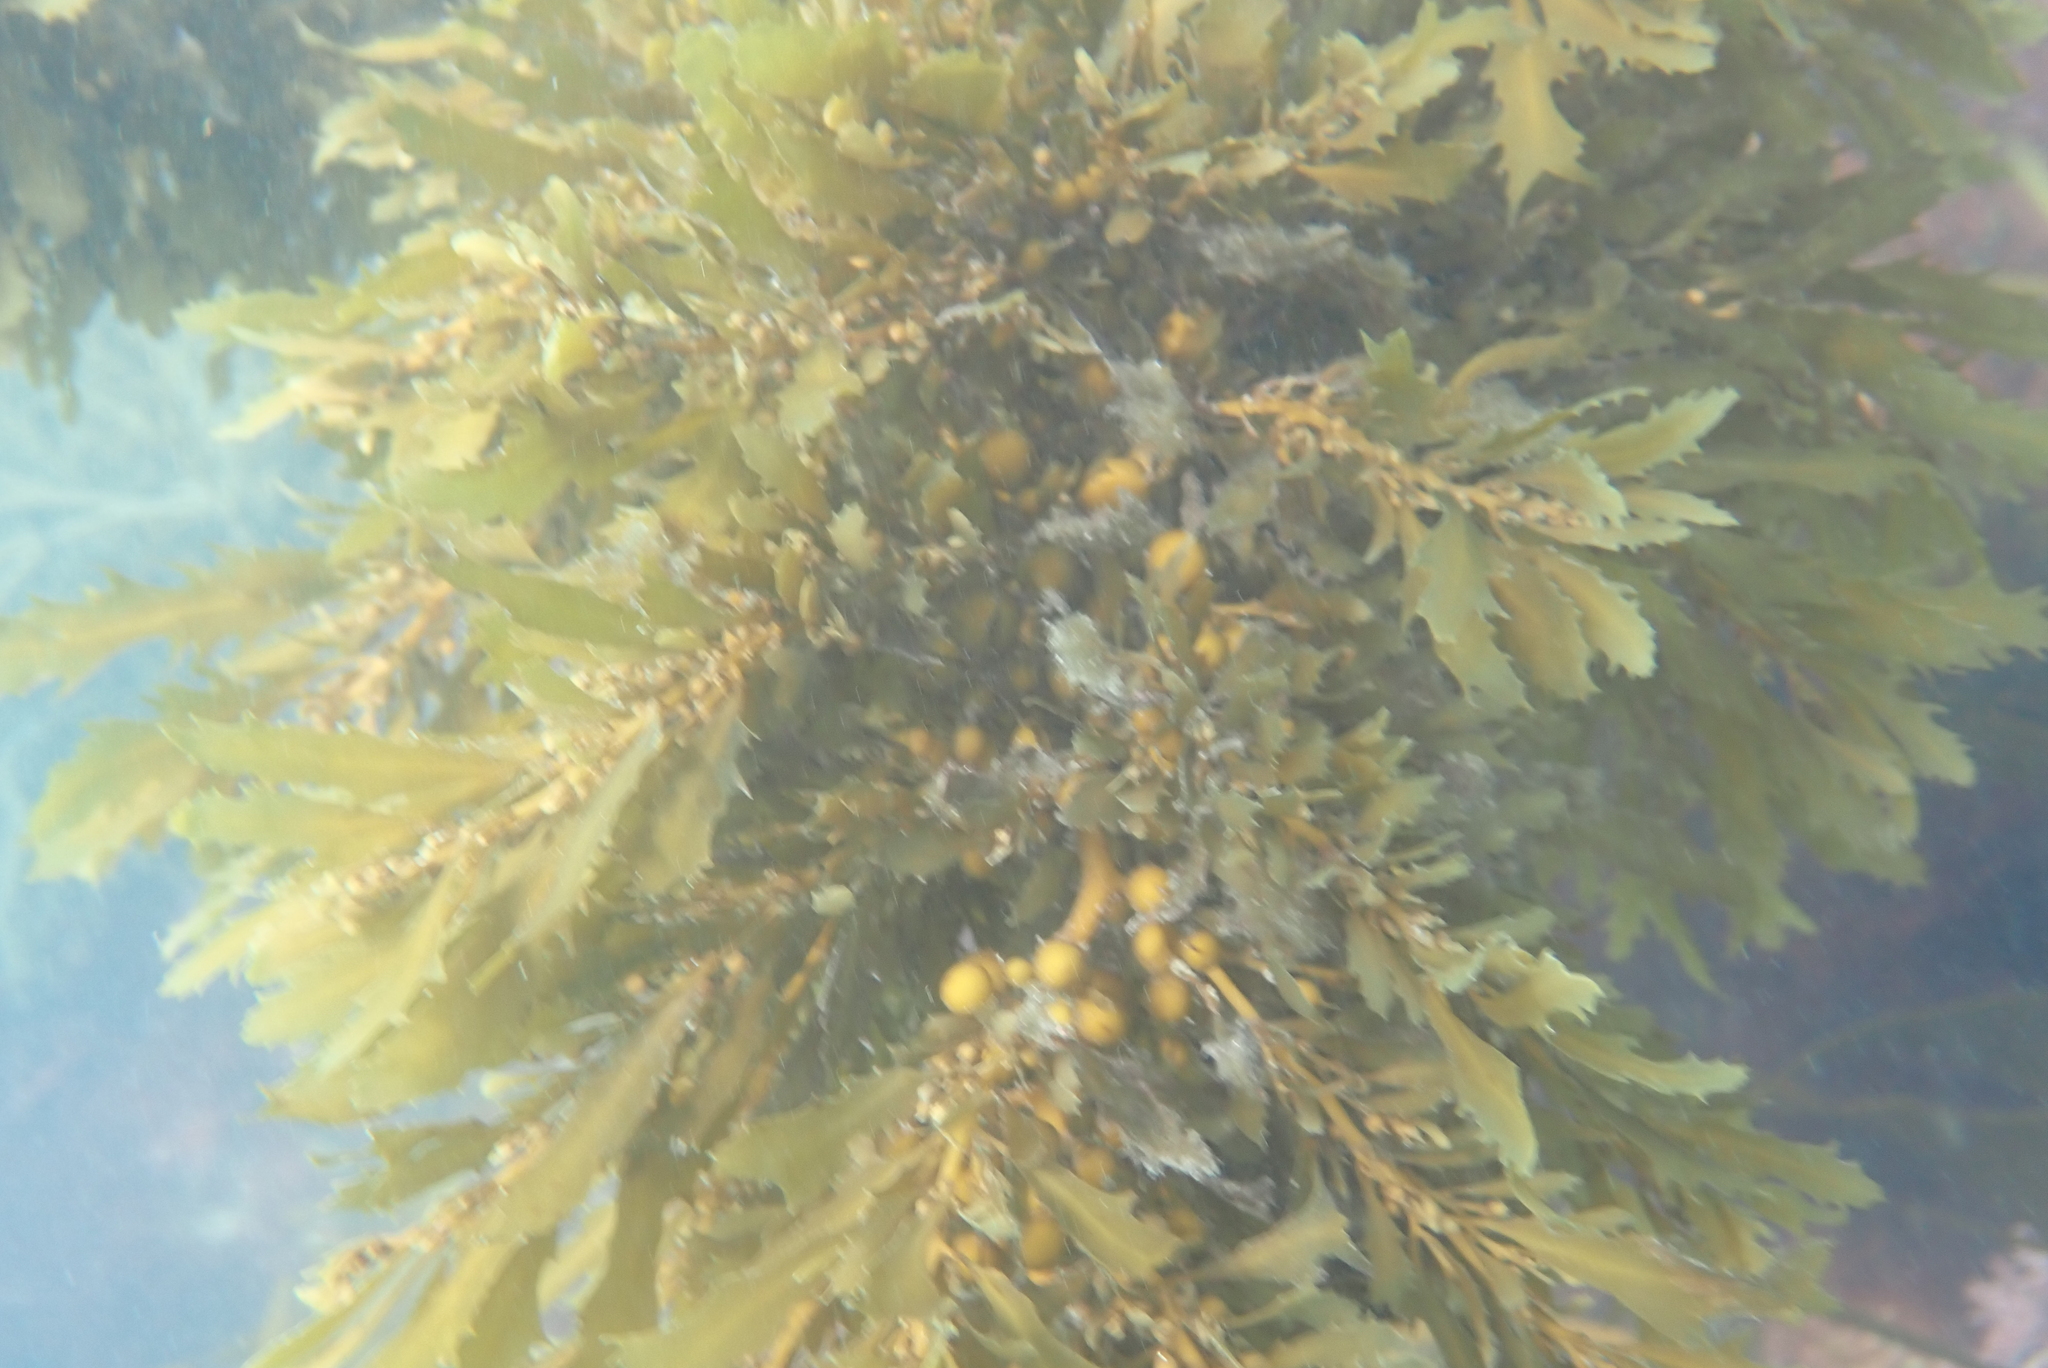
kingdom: Chromista
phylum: Ochrophyta
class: Phaeophyceae
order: Fucales
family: Sargassaceae
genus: Sargassum
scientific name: Sargassum sinclairii
